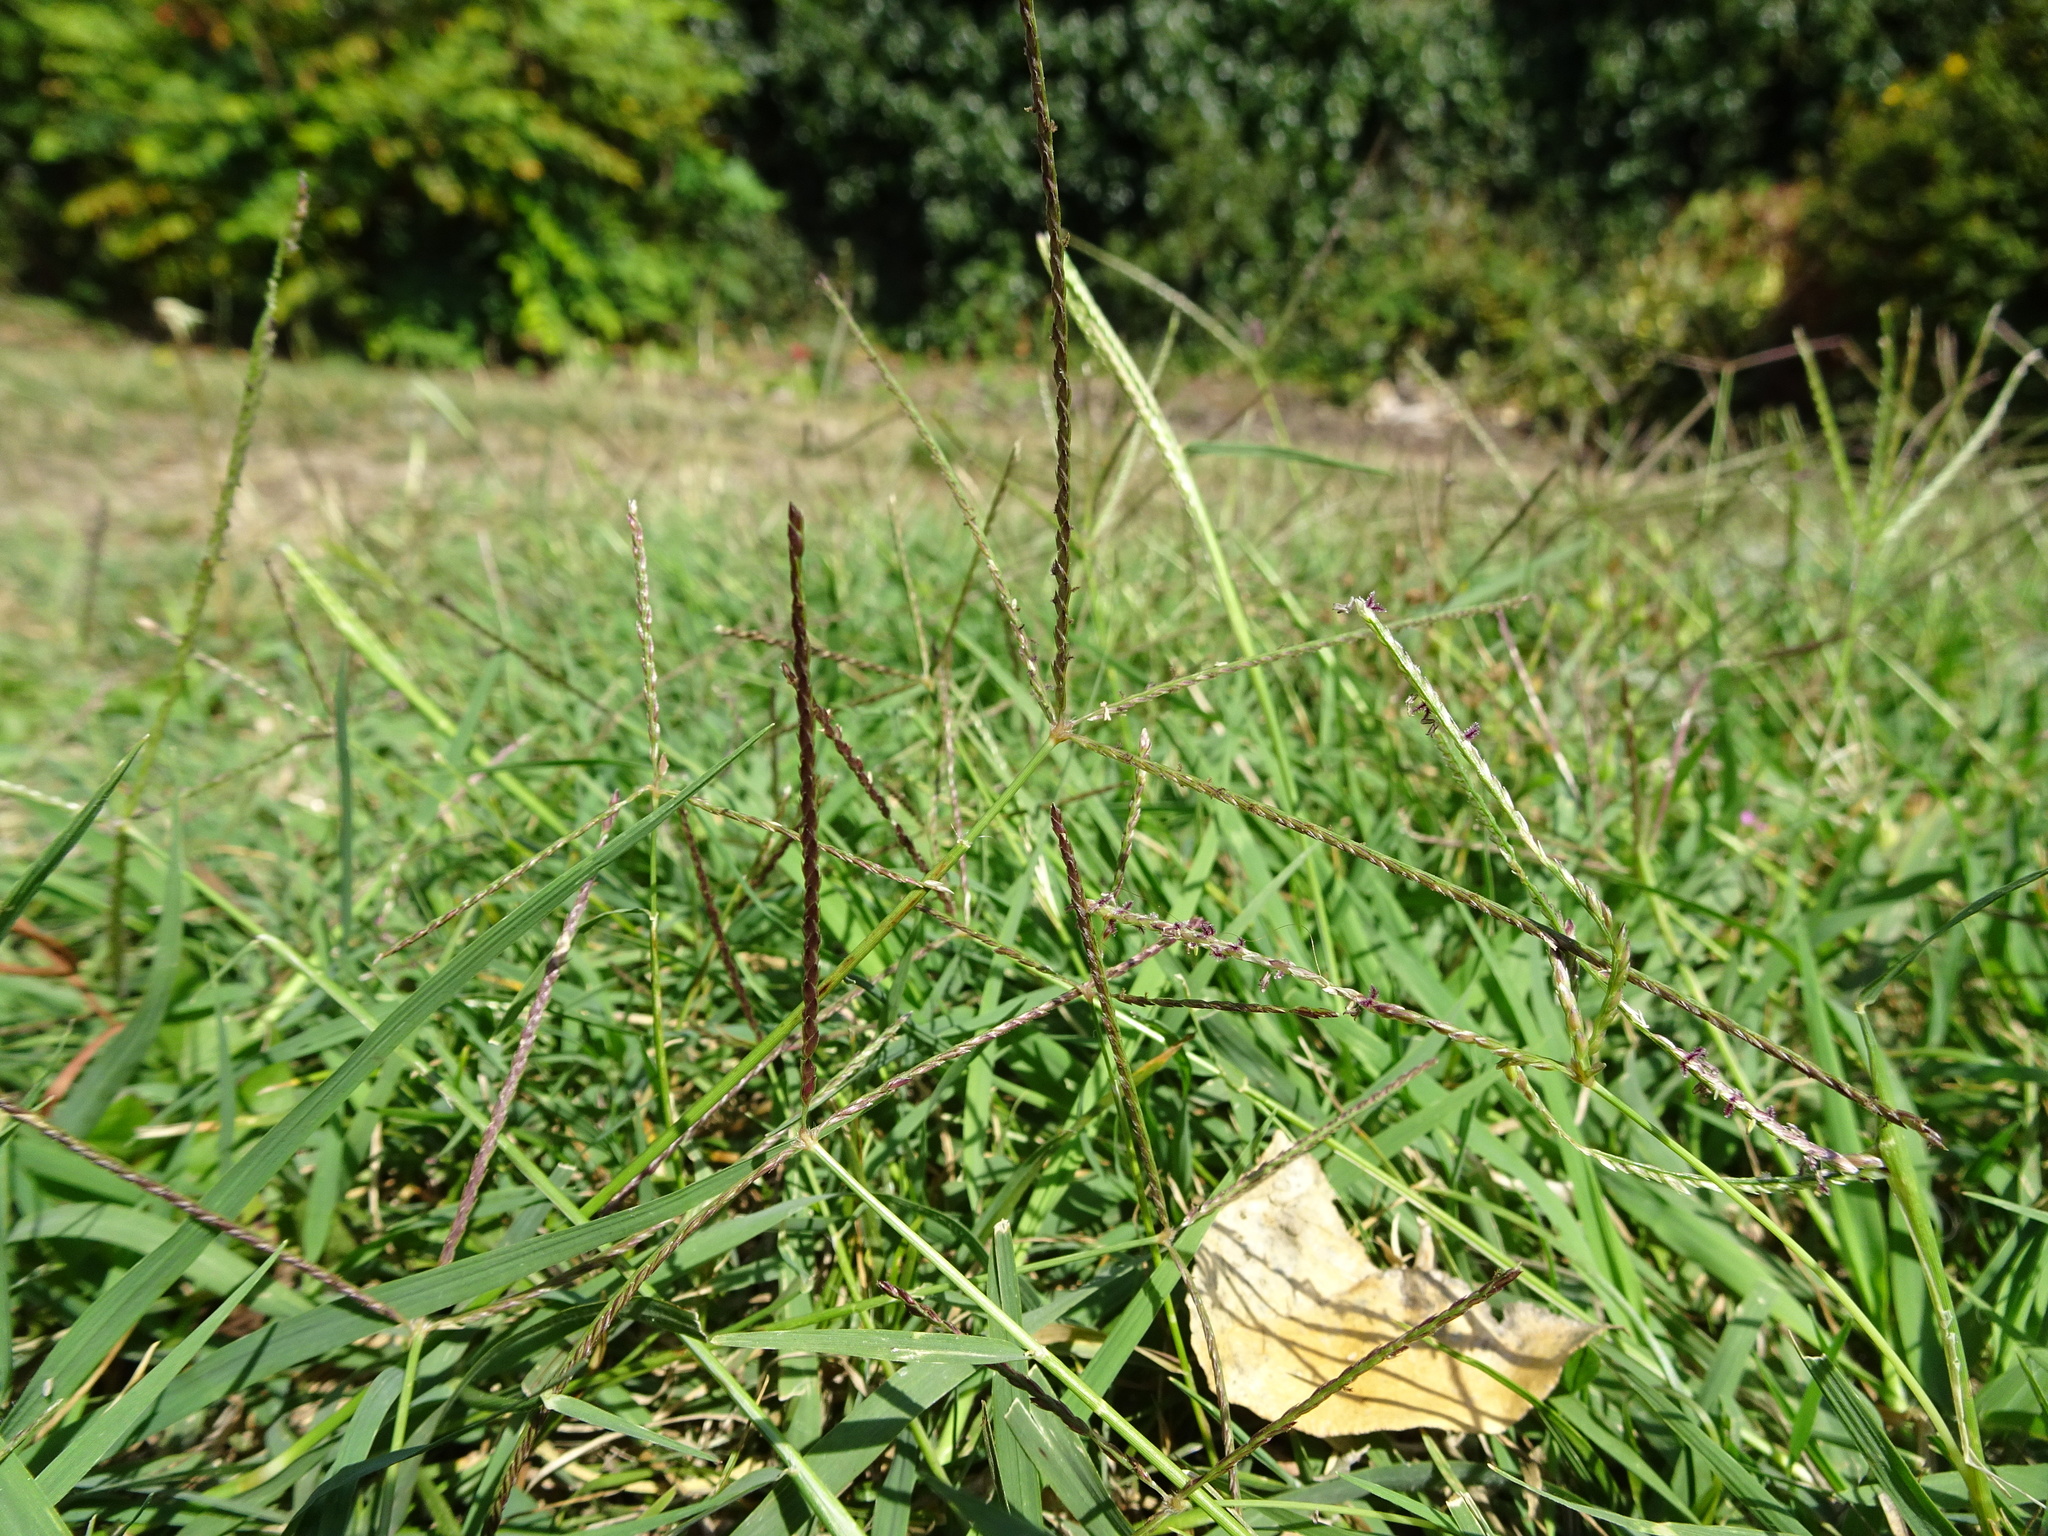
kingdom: Plantae
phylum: Tracheophyta
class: Liliopsida
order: Poales
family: Poaceae
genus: Cynodon
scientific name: Cynodon dactylon
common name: Bermuda grass
